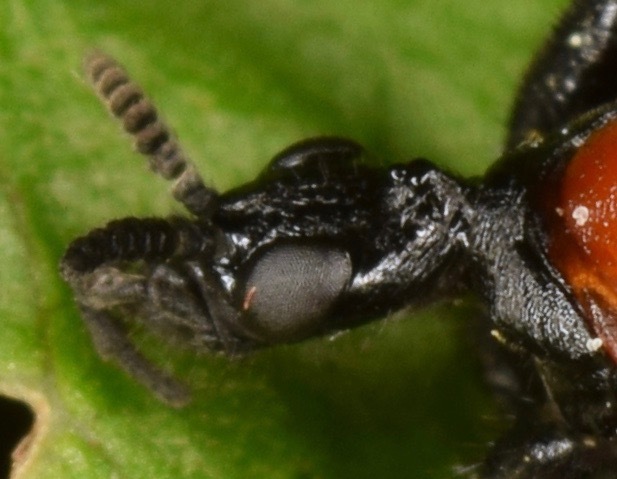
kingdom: Animalia
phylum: Arthropoda
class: Insecta
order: Diptera
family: Bibionidae
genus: Bibio
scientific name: Bibio superfluus
